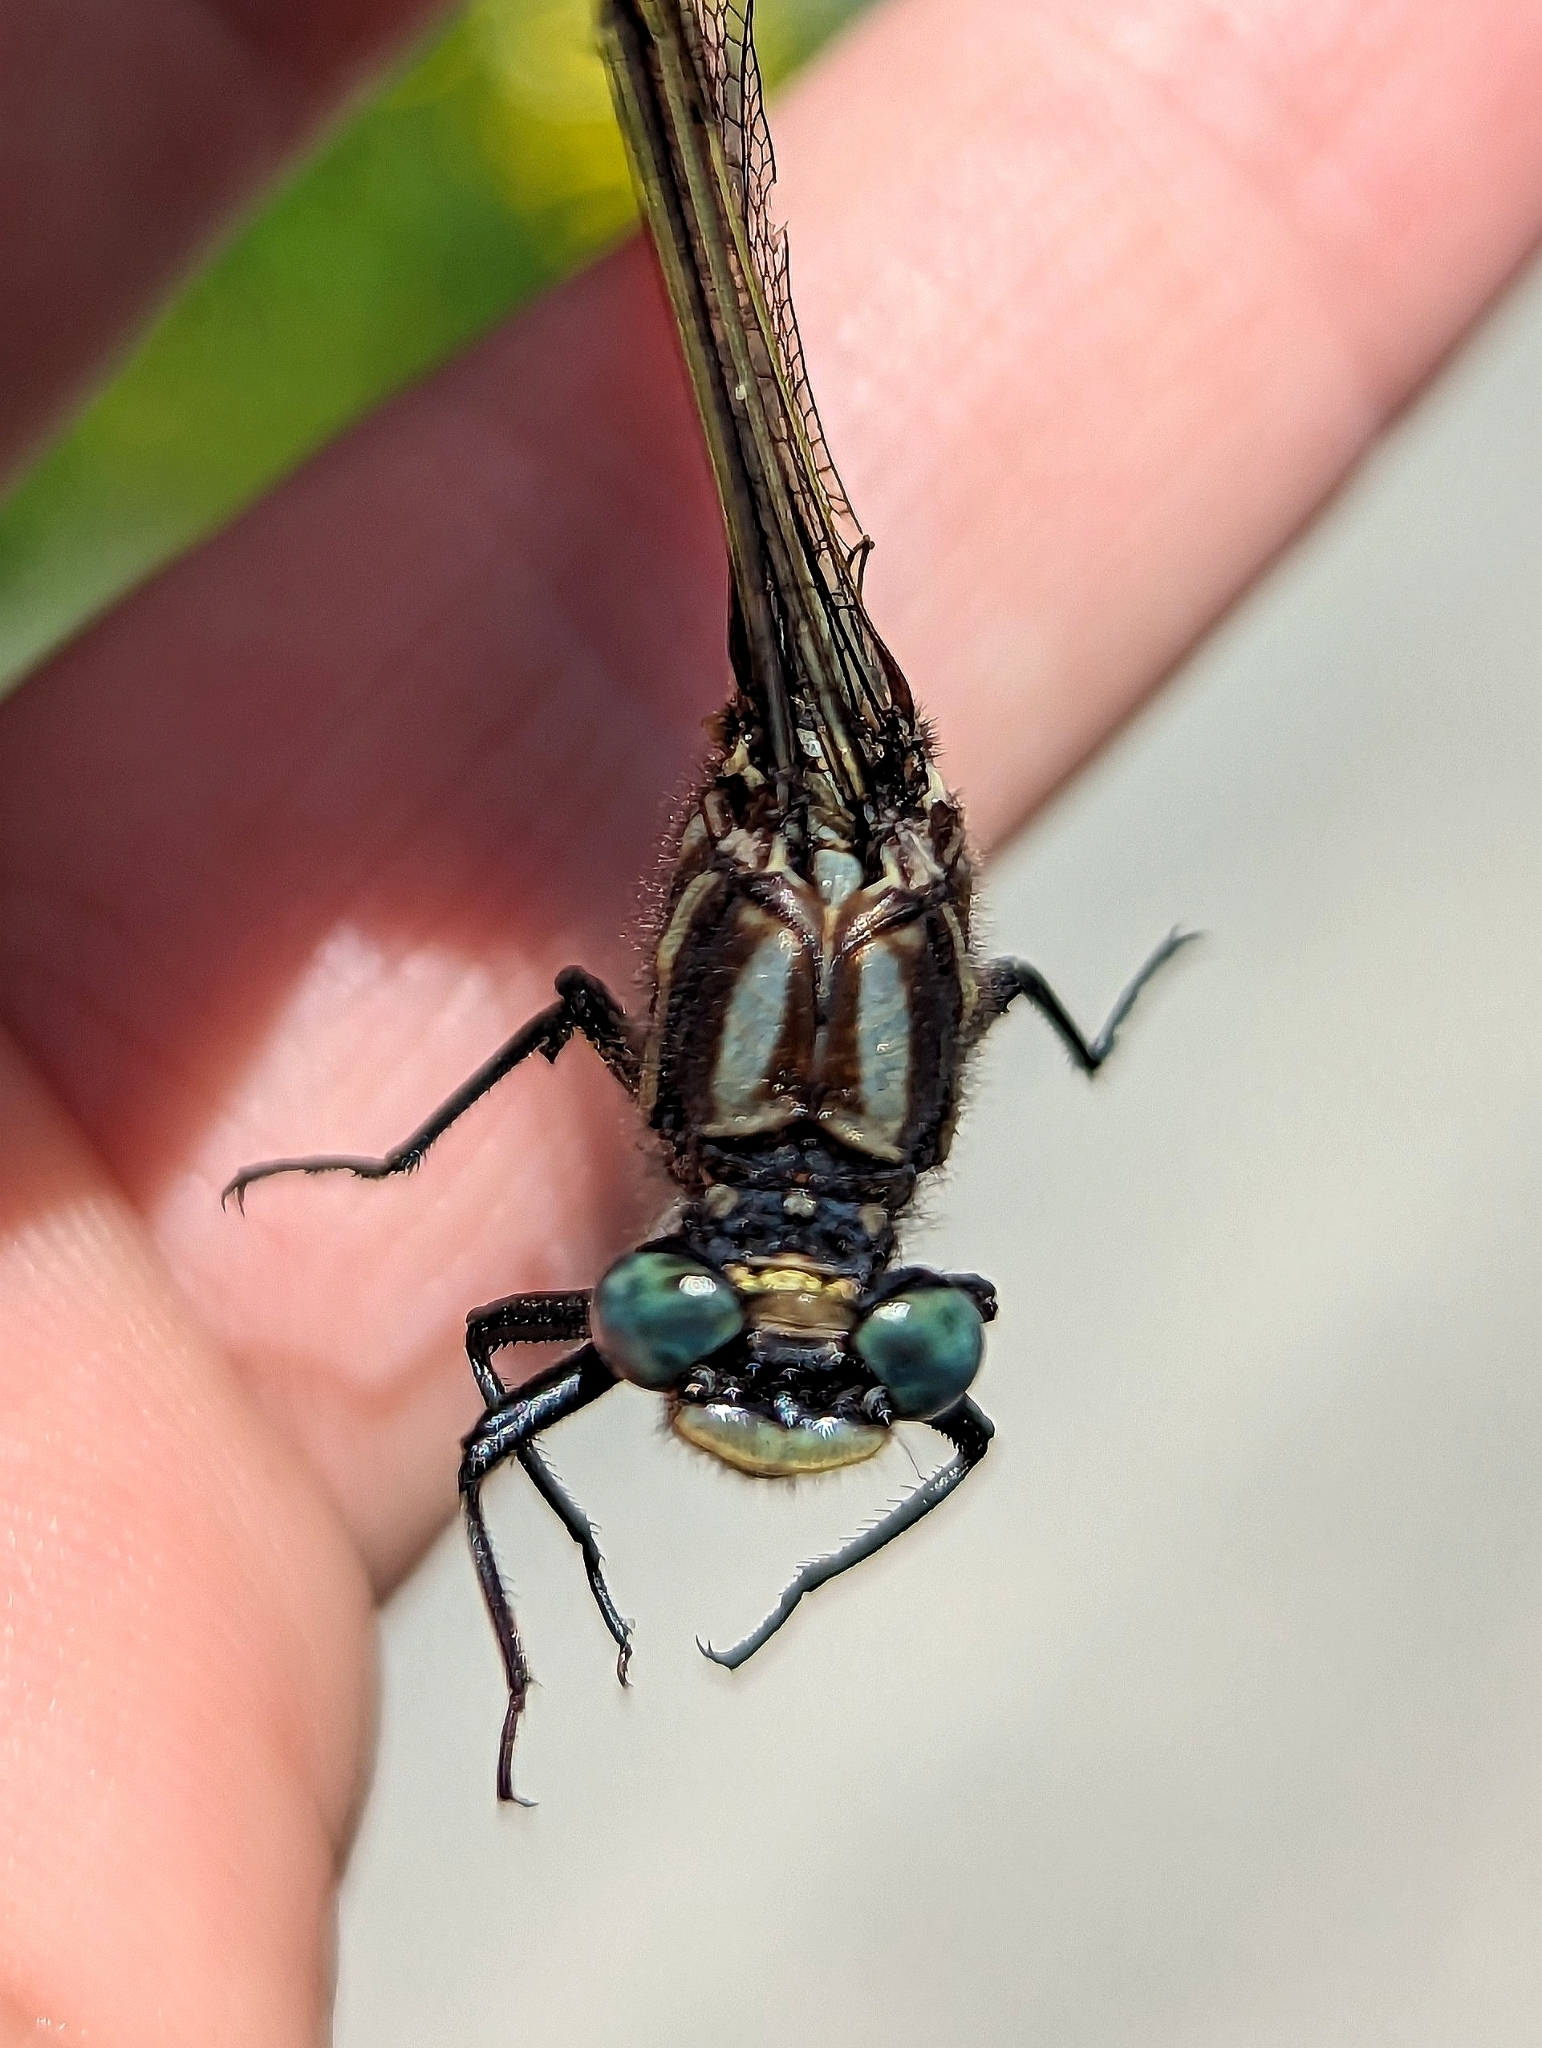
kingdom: Animalia
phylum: Arthropoda
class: Insecta
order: Odonata
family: Gomphidae
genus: Phanogomphus
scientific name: Phanogomphus descriptus
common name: Harpoon clubtail
